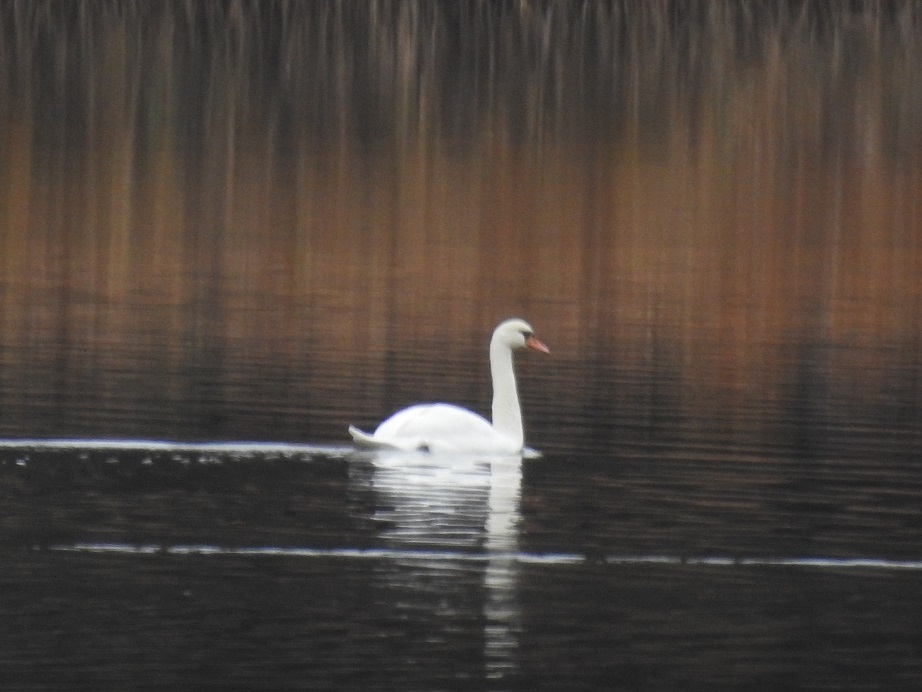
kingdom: Animalia
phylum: Chordata
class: Aves
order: Anseriformes
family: Anatidae
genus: Cygnus
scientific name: Cygnus olor
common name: Mute swan
